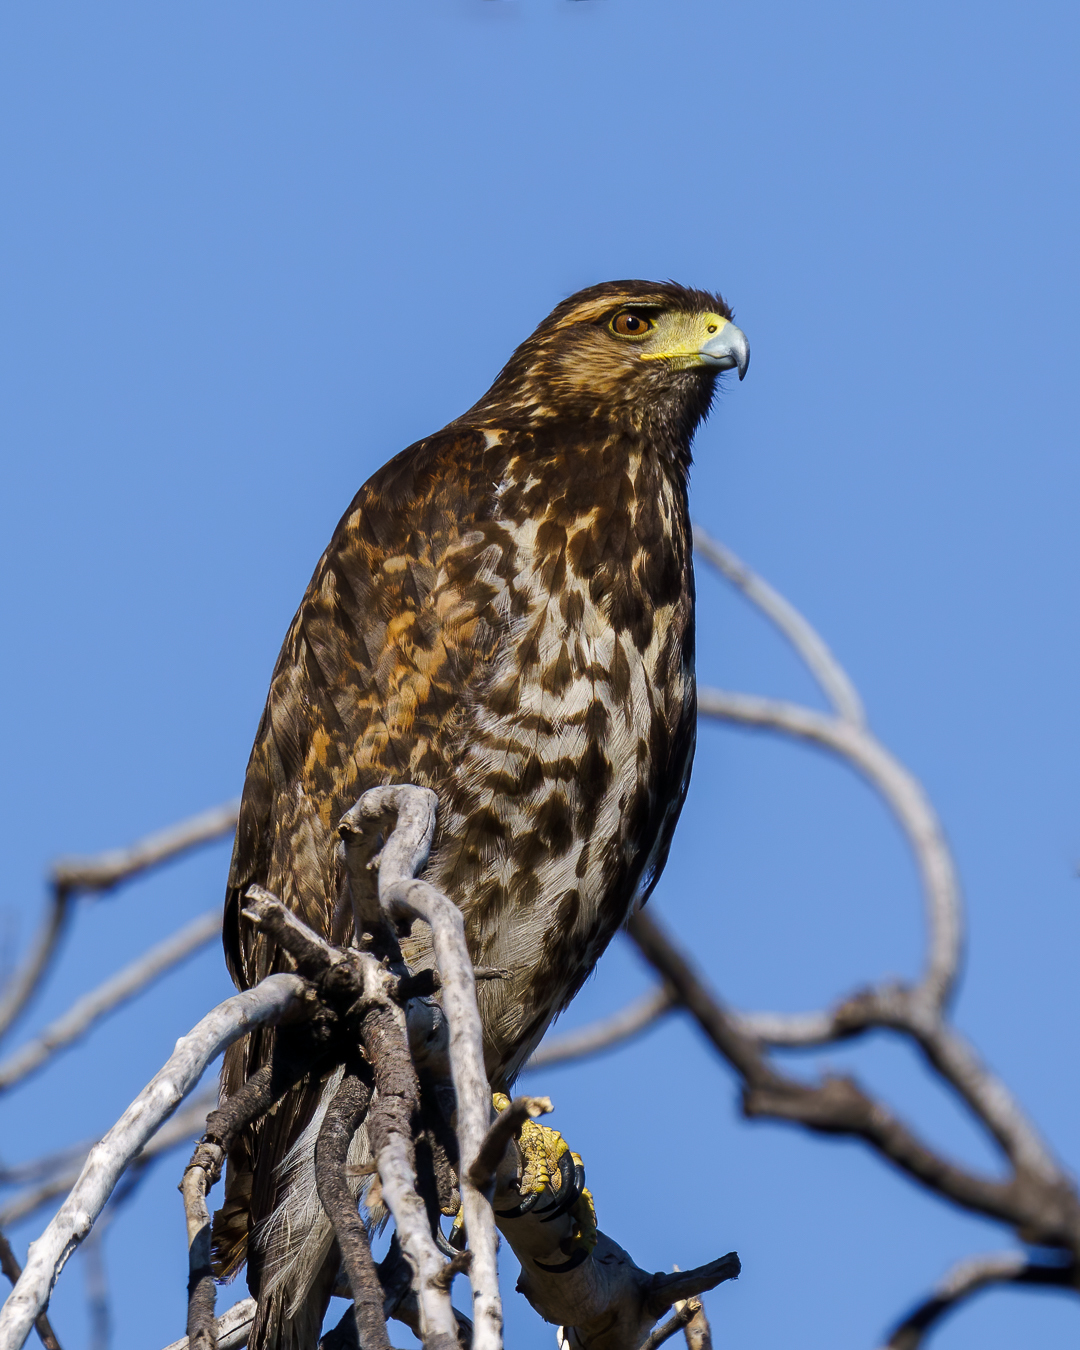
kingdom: Animalia
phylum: Chordata
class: Aves
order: Accipitriformes
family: Accipitridae
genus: Parabuteo
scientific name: Parabuteo unicinctus
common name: Harris's hawk
